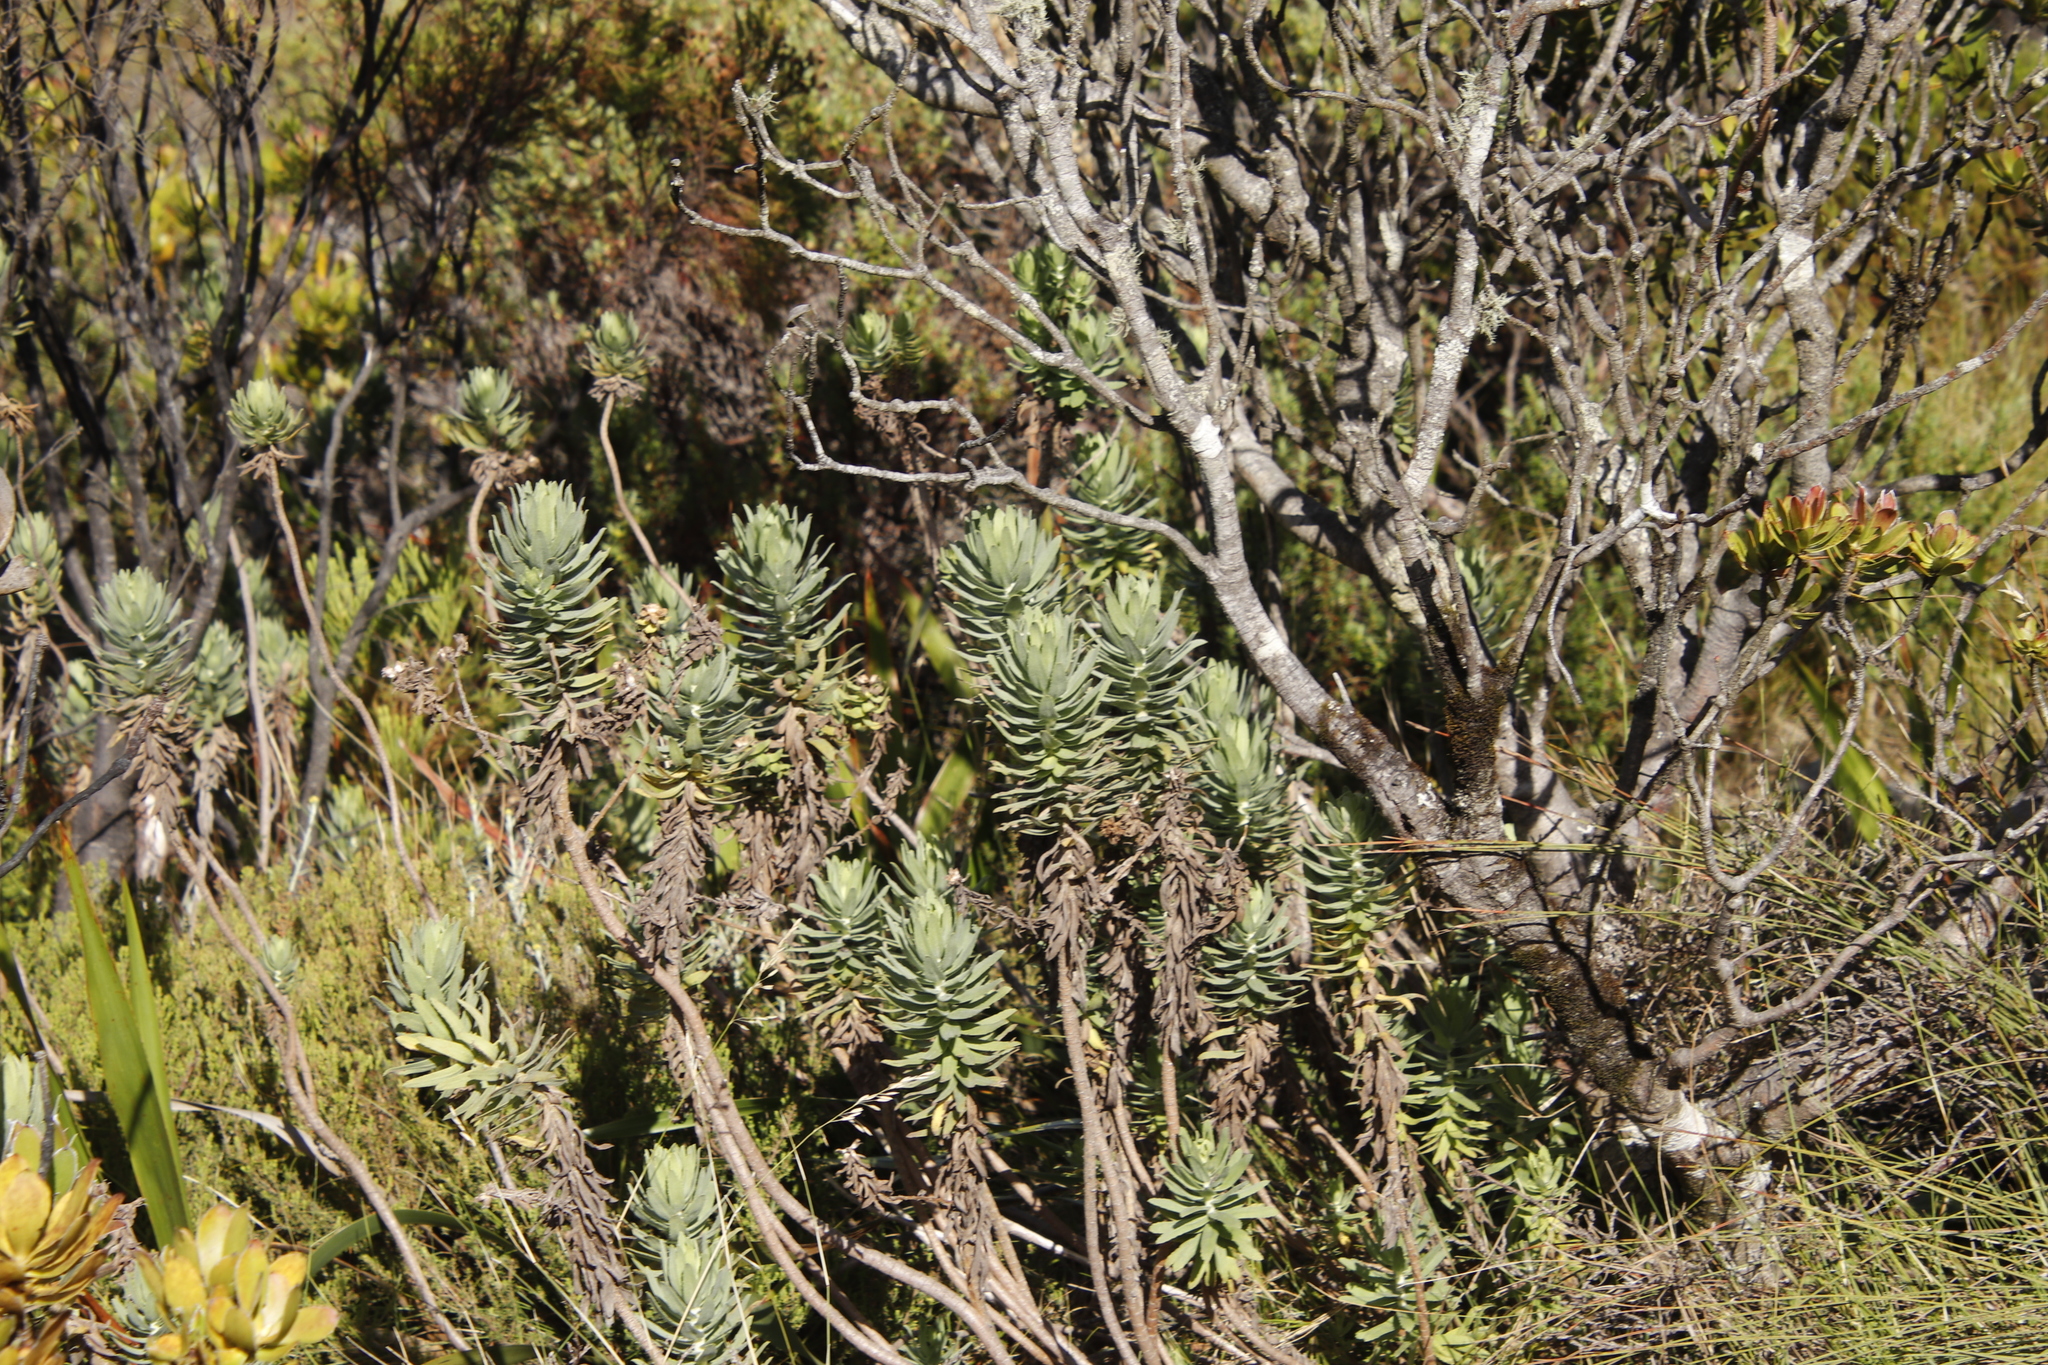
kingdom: Plantae
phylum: Tracheophyta
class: Magnoliopsida
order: Asterales
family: Asteraceae
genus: Osmitopsis
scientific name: Osmitopsis asteriscoides
